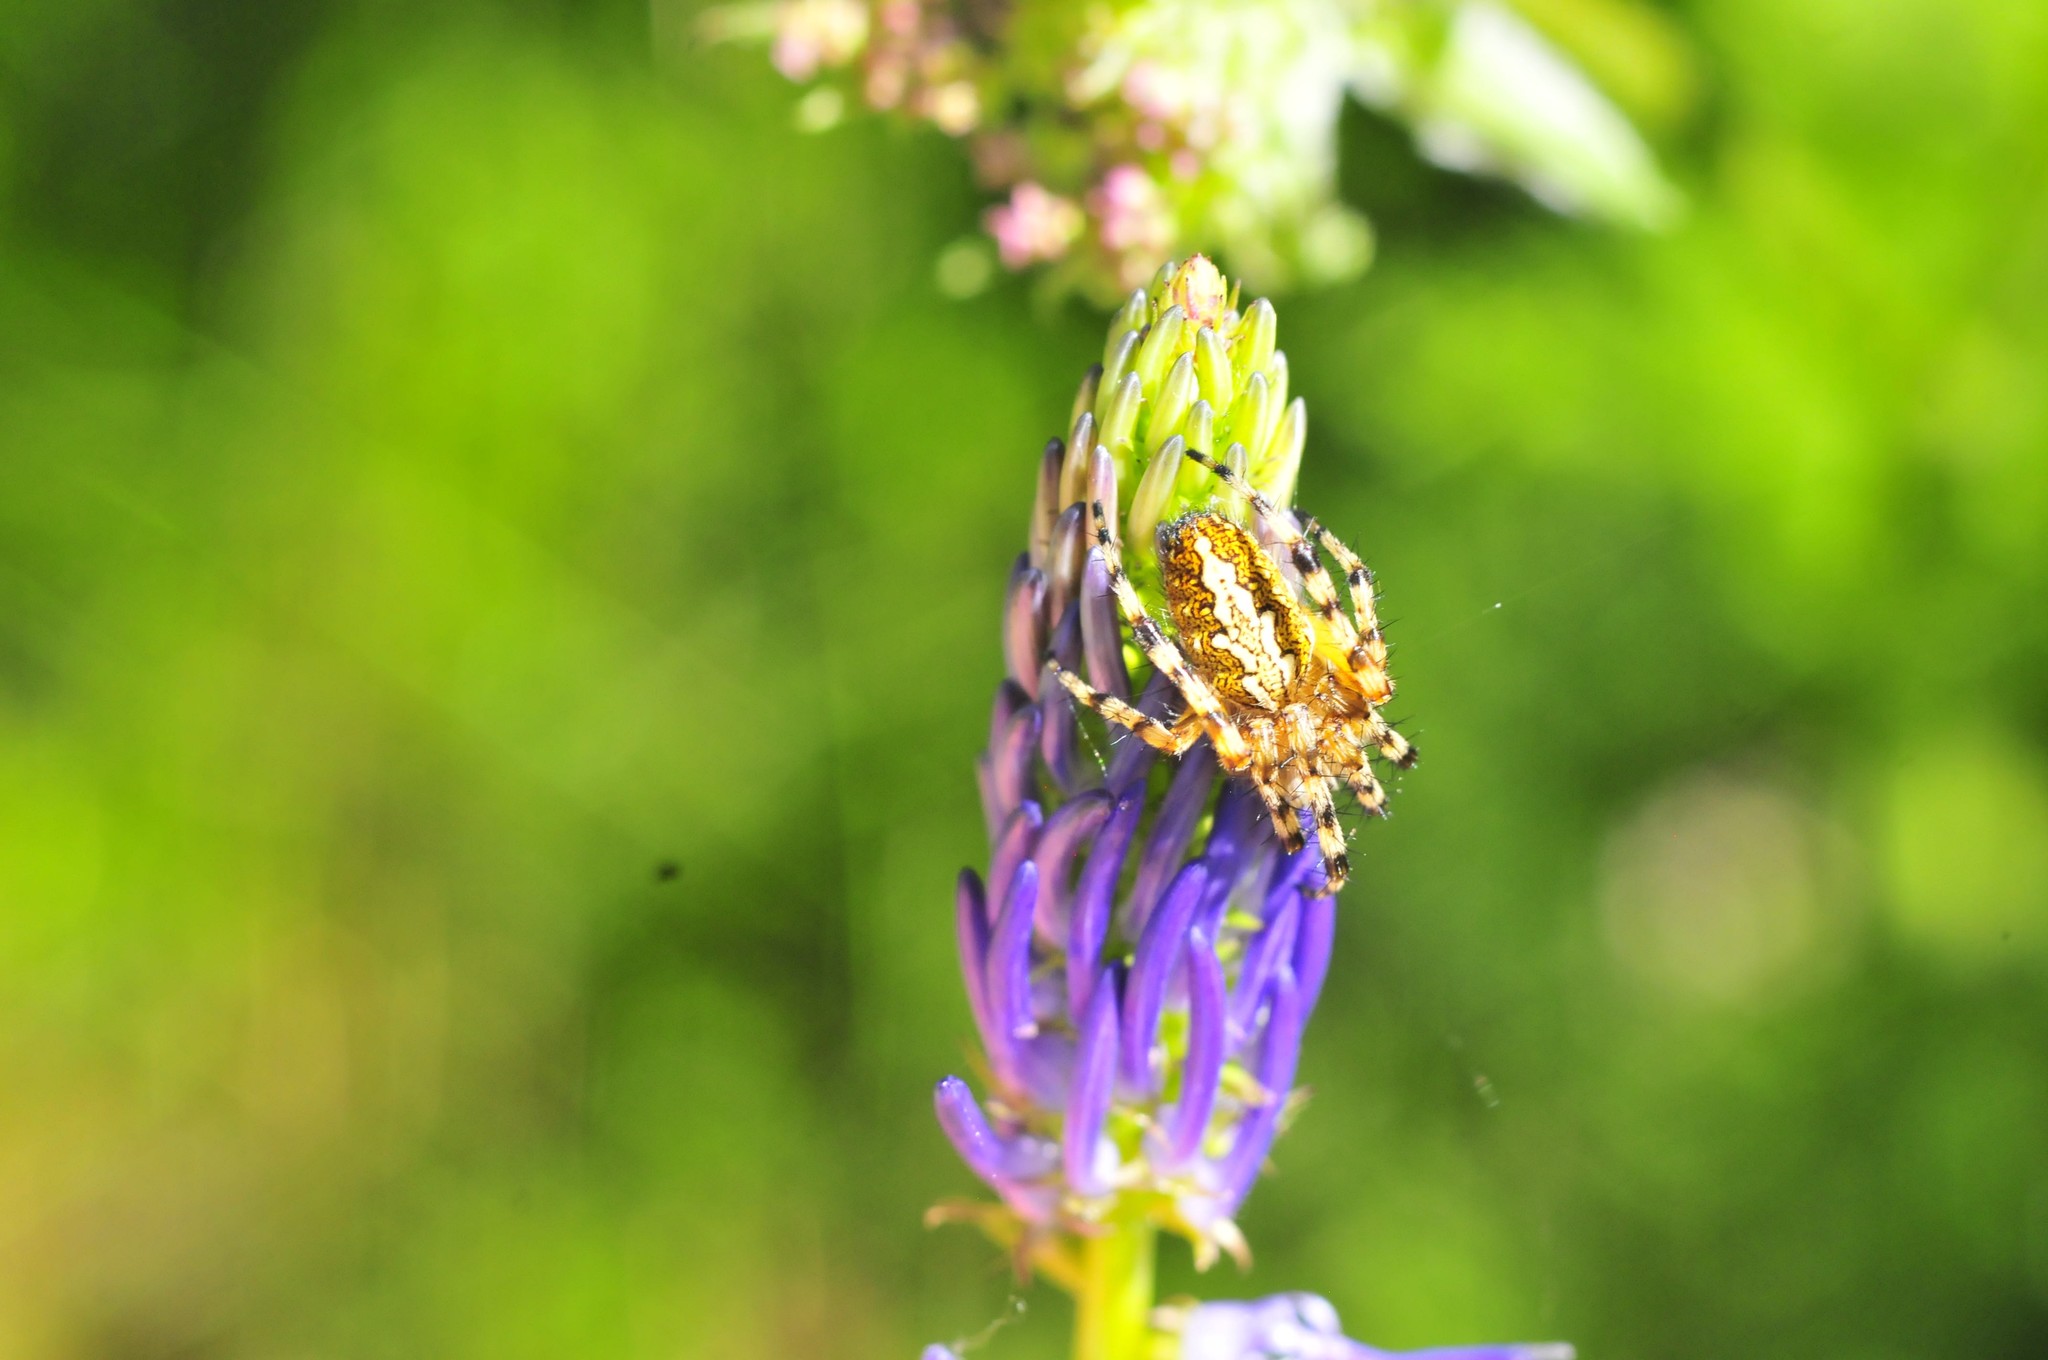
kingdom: Animalia
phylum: Arthropoda
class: Arachnida
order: Araneae
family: Araneidae
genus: Aculepeira
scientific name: Aculepeira ceropegia
